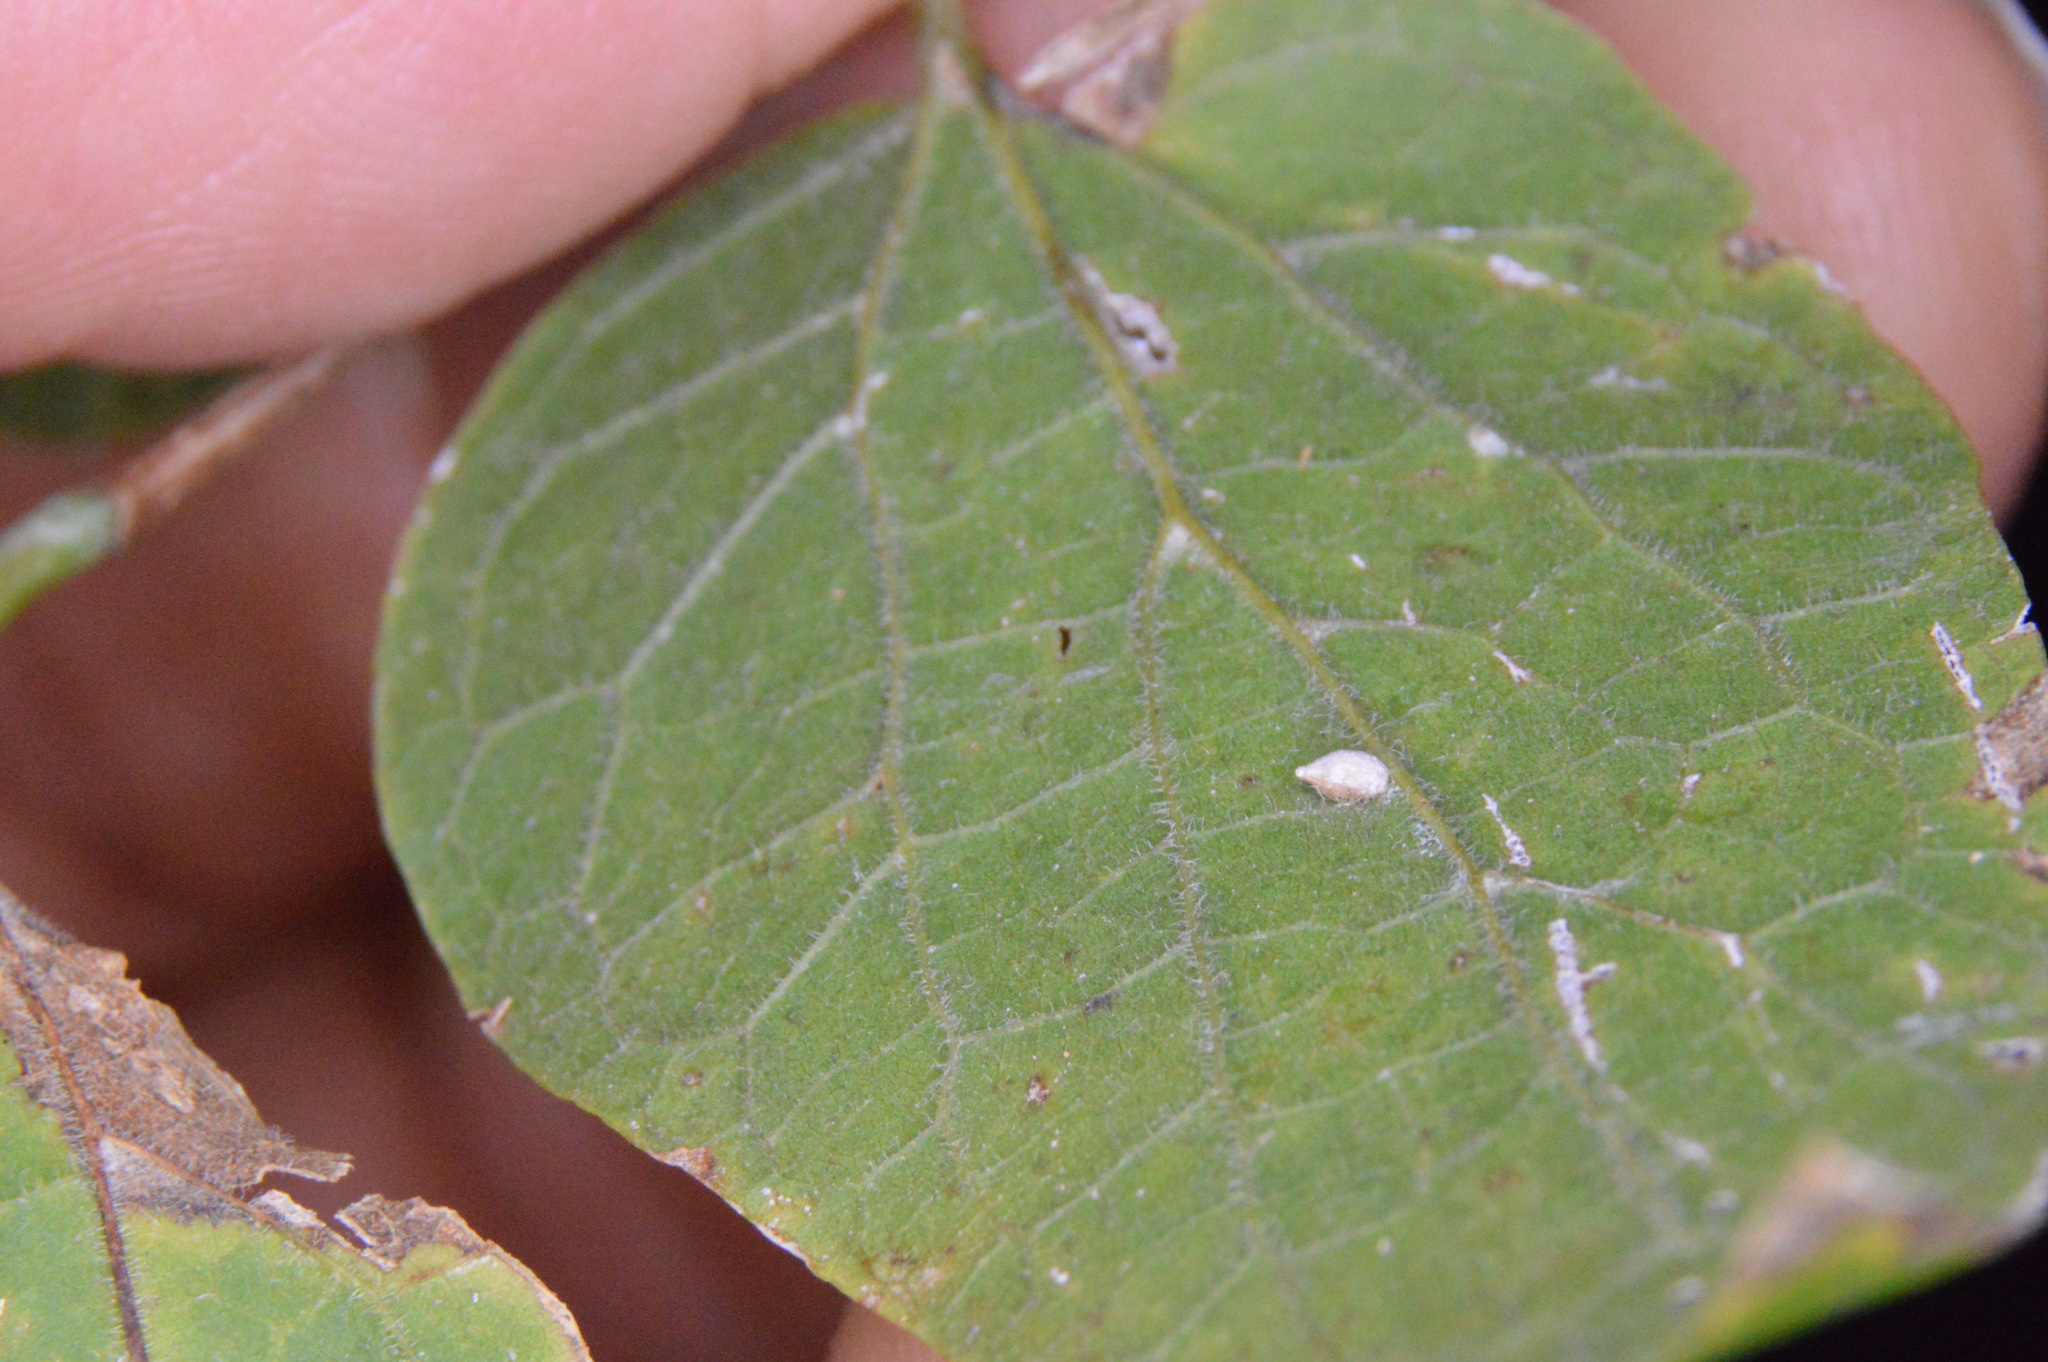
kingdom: Animalia
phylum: Arthropoda
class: Insecta
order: Diptera
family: Cecidomyiidae
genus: Celticecis
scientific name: Celticecis supina
